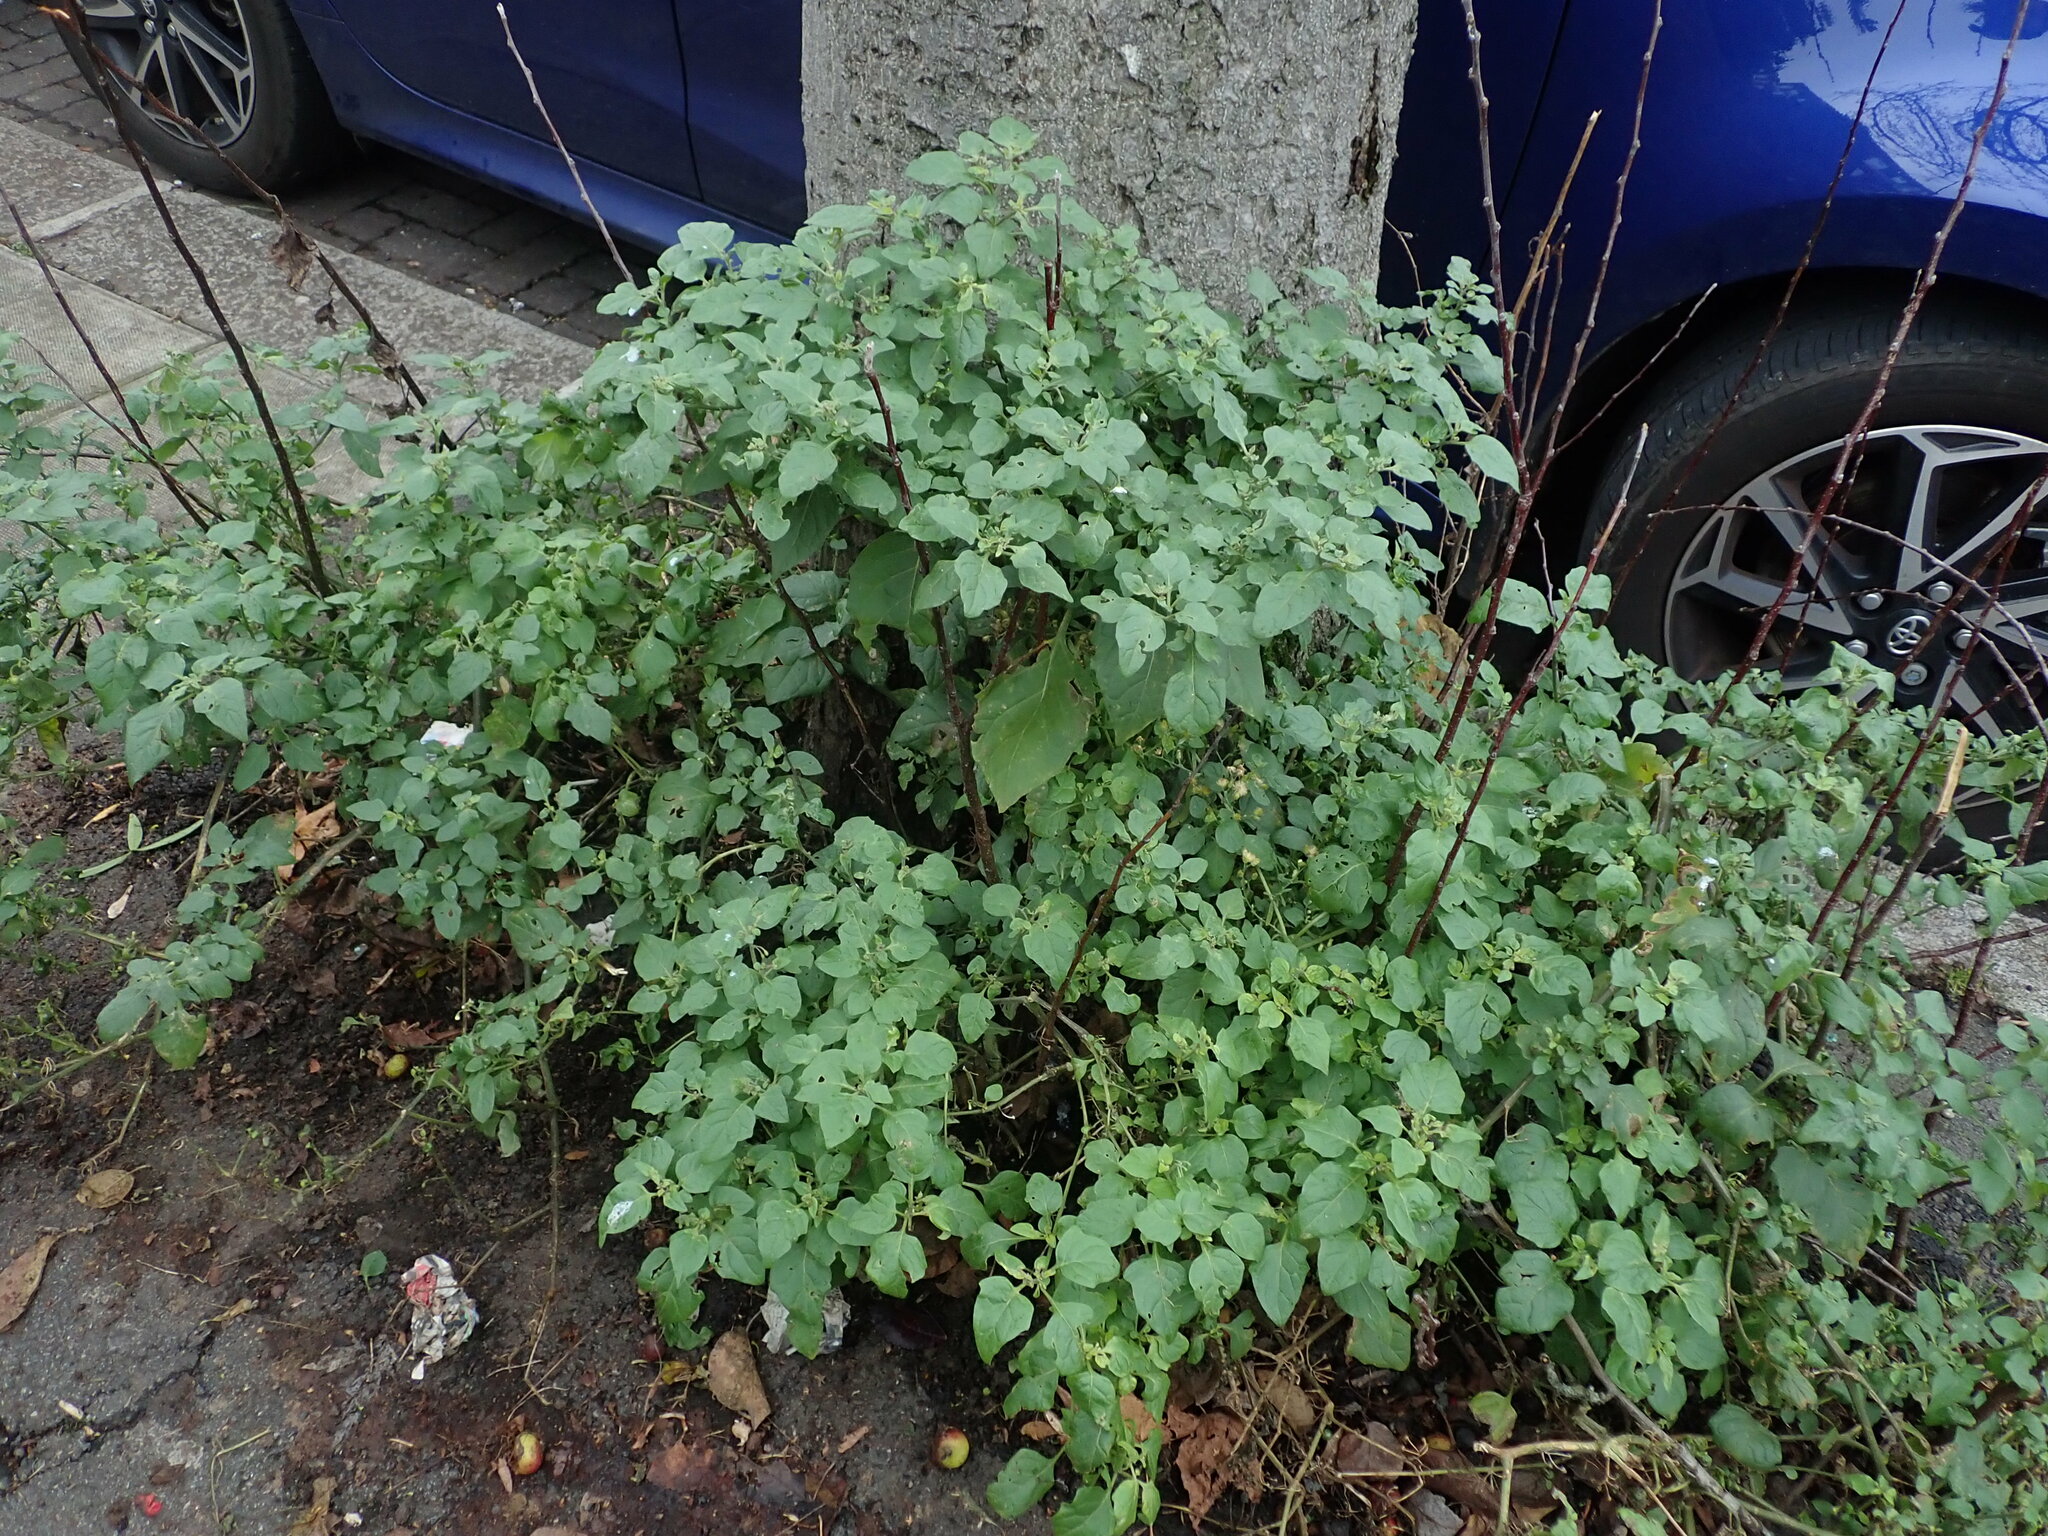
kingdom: Plantae
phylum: Tracheophyta
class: Magnoliopsida
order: Solanales
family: Solanaceae
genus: Solanum
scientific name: Solanum nigrum
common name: Black nightshade
